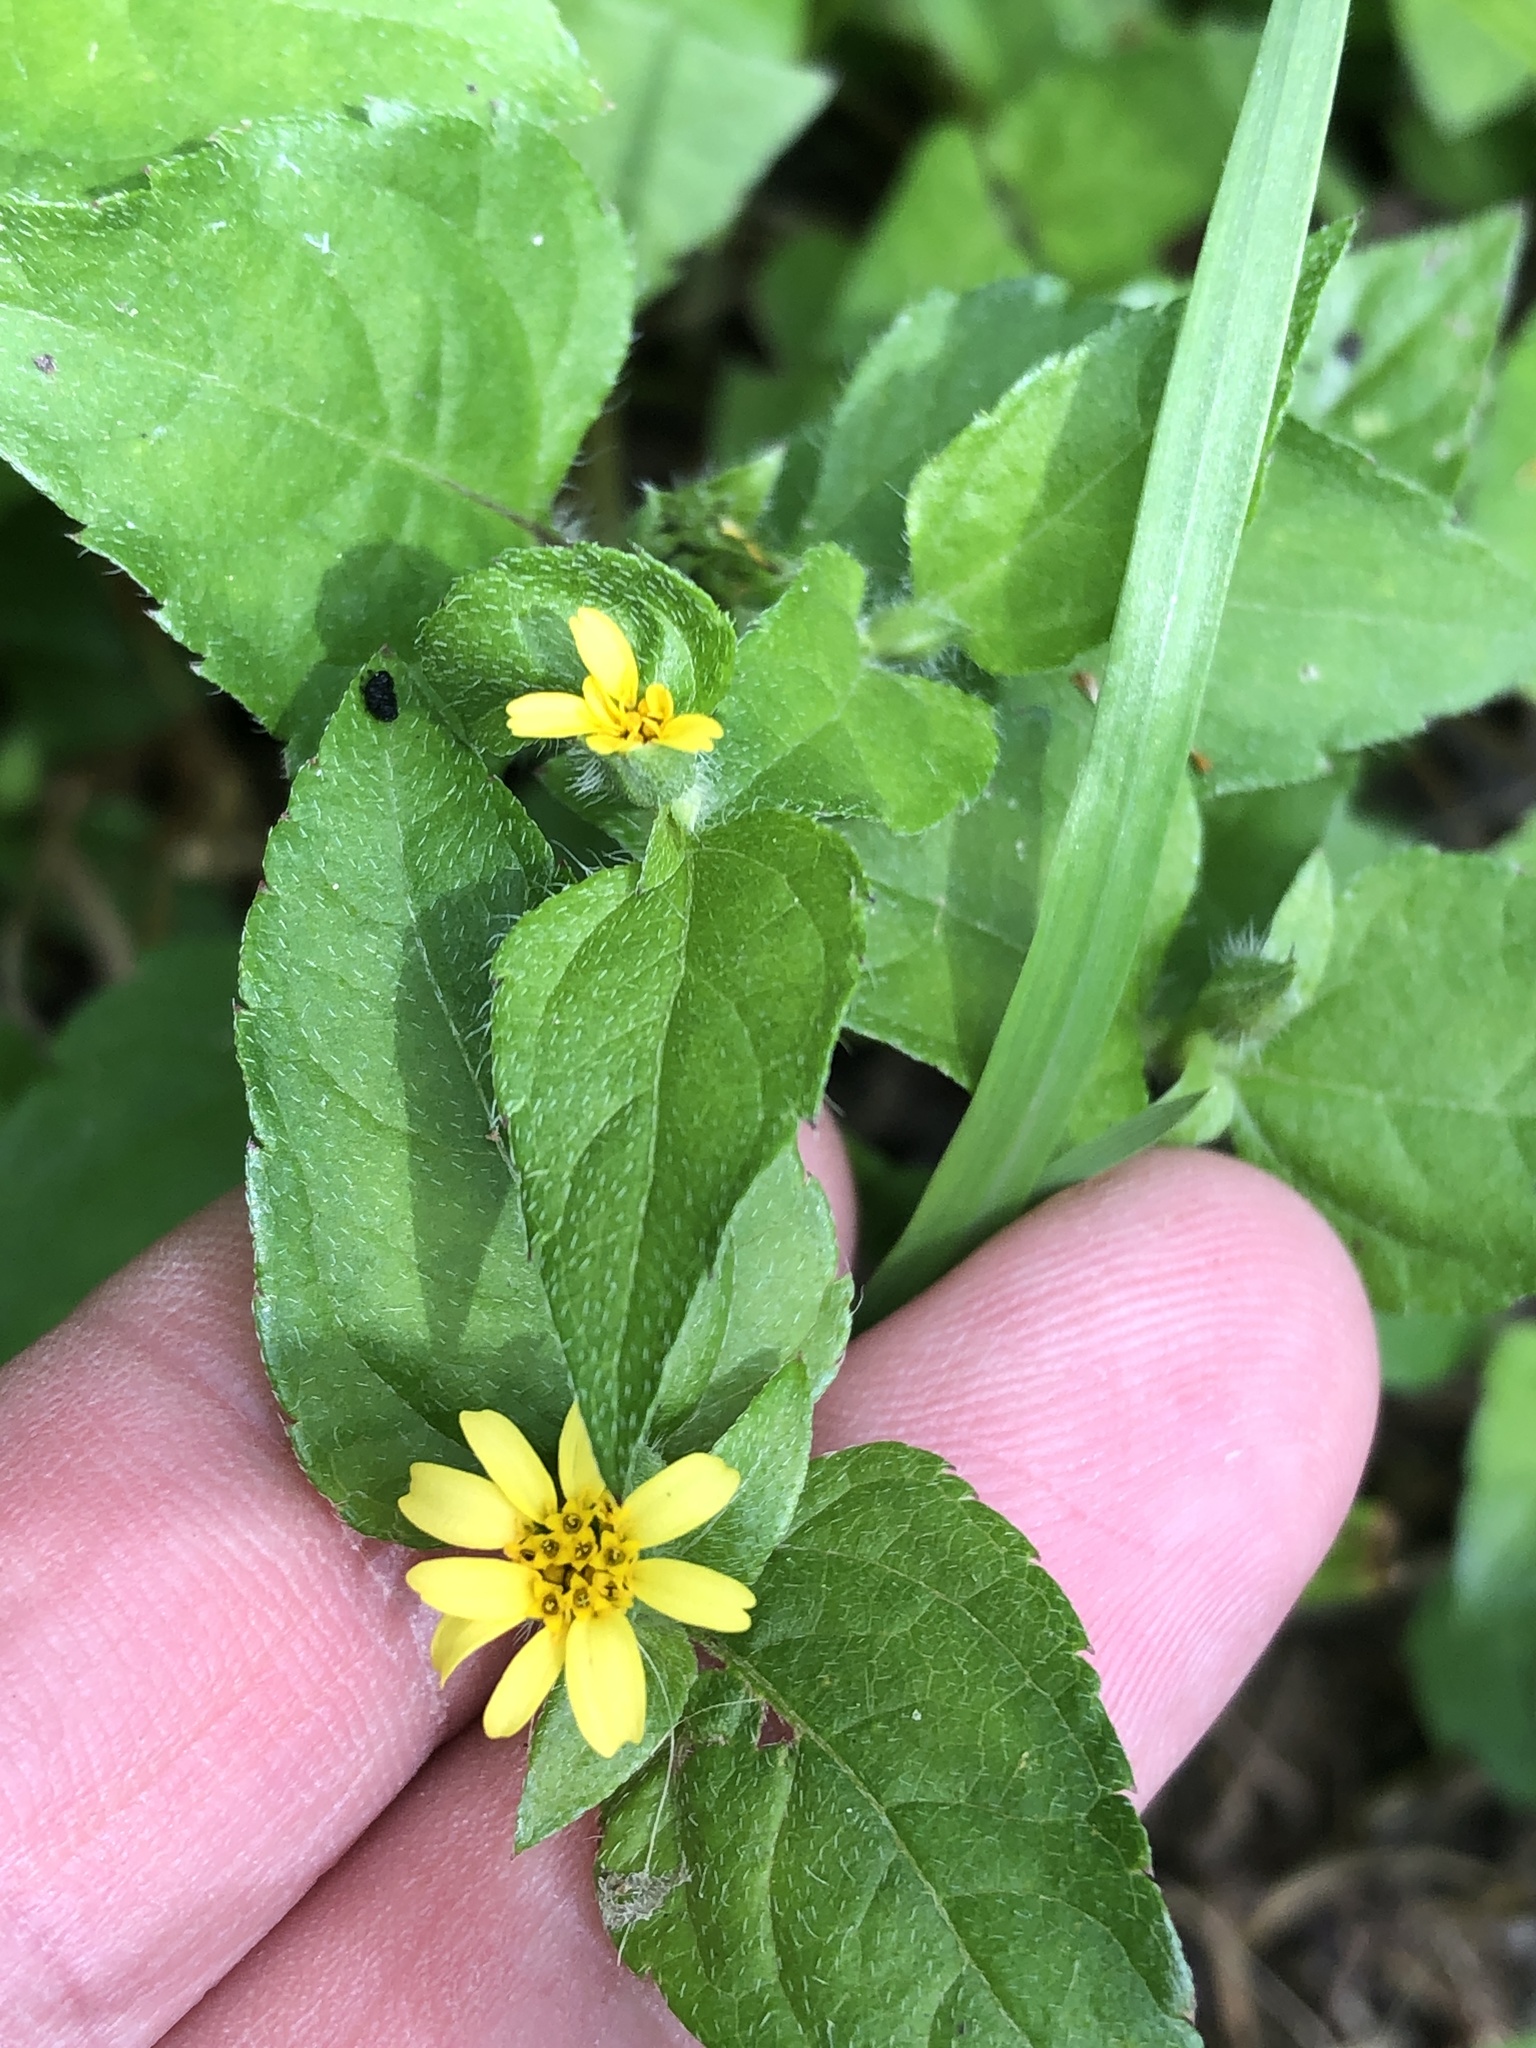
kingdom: Plantae
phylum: Tracheophyta
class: Magnoliopsida
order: Asterales
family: Asteraceae
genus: Calyptocarpus
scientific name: Calyptocarpus vialis
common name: Straggler daisy
